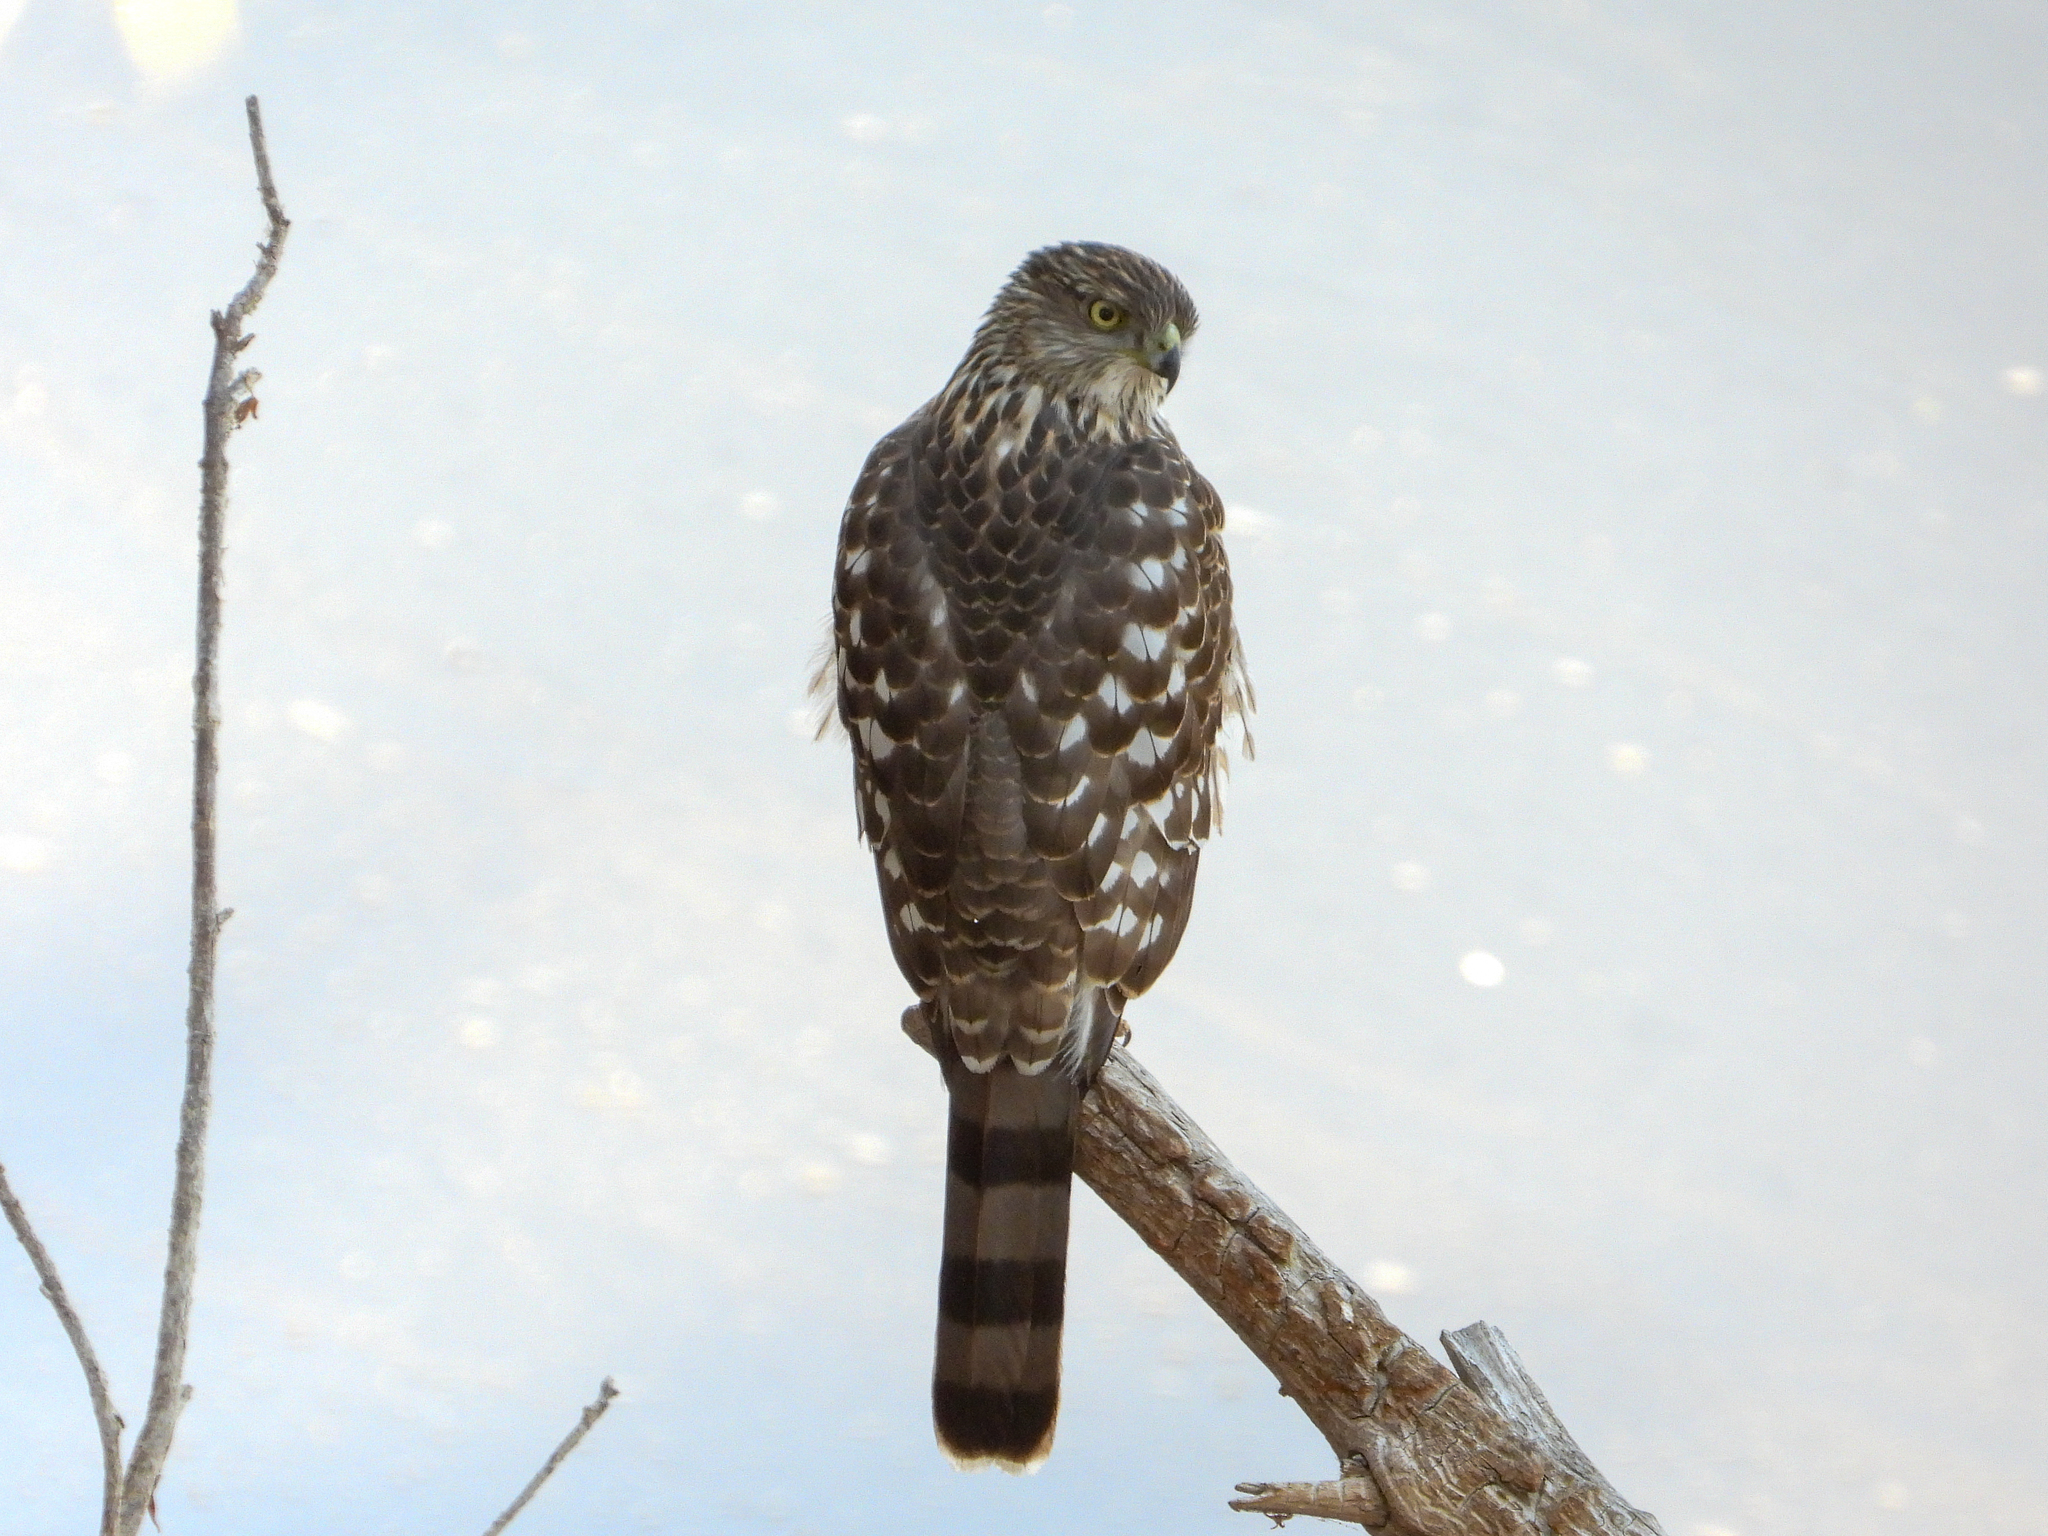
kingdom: Animalia
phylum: Chordata
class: Aves
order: Accipitriformes
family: Accipitridae
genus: Accipiter
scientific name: Accipiter cooperii
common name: Cooper's hawk
